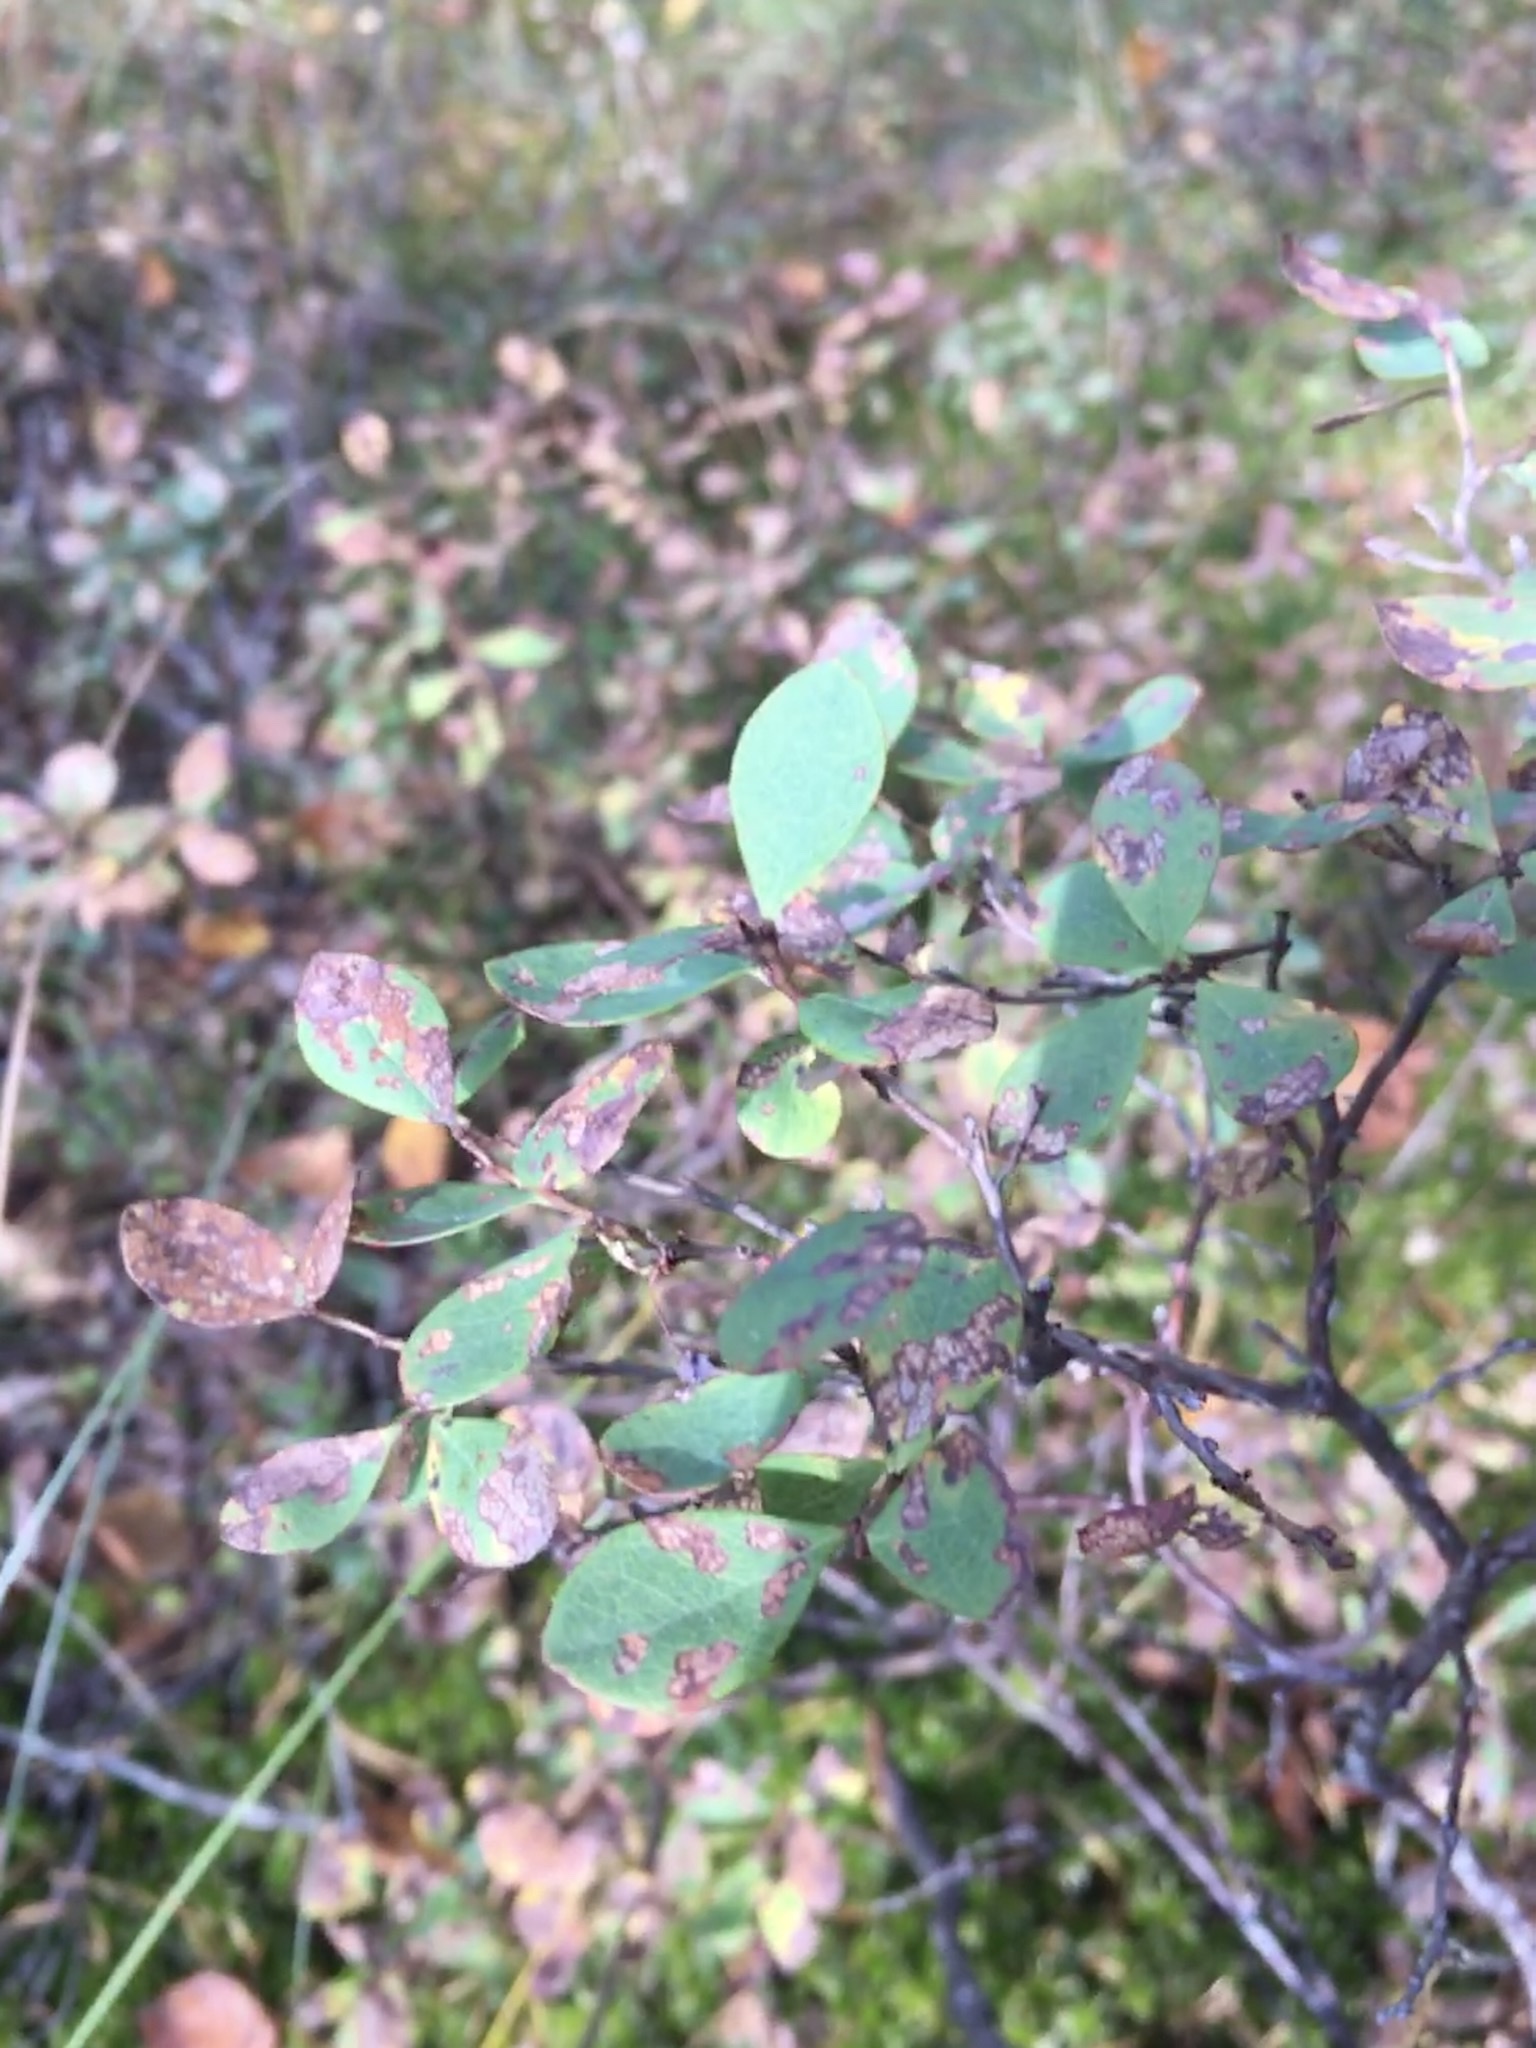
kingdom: Plantae
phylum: Tracheophyta
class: Magnoliopsida
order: Ericales
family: Ericaceae
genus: Vaccinium
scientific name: Vaccinium uliginosum
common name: Bog bilberry
